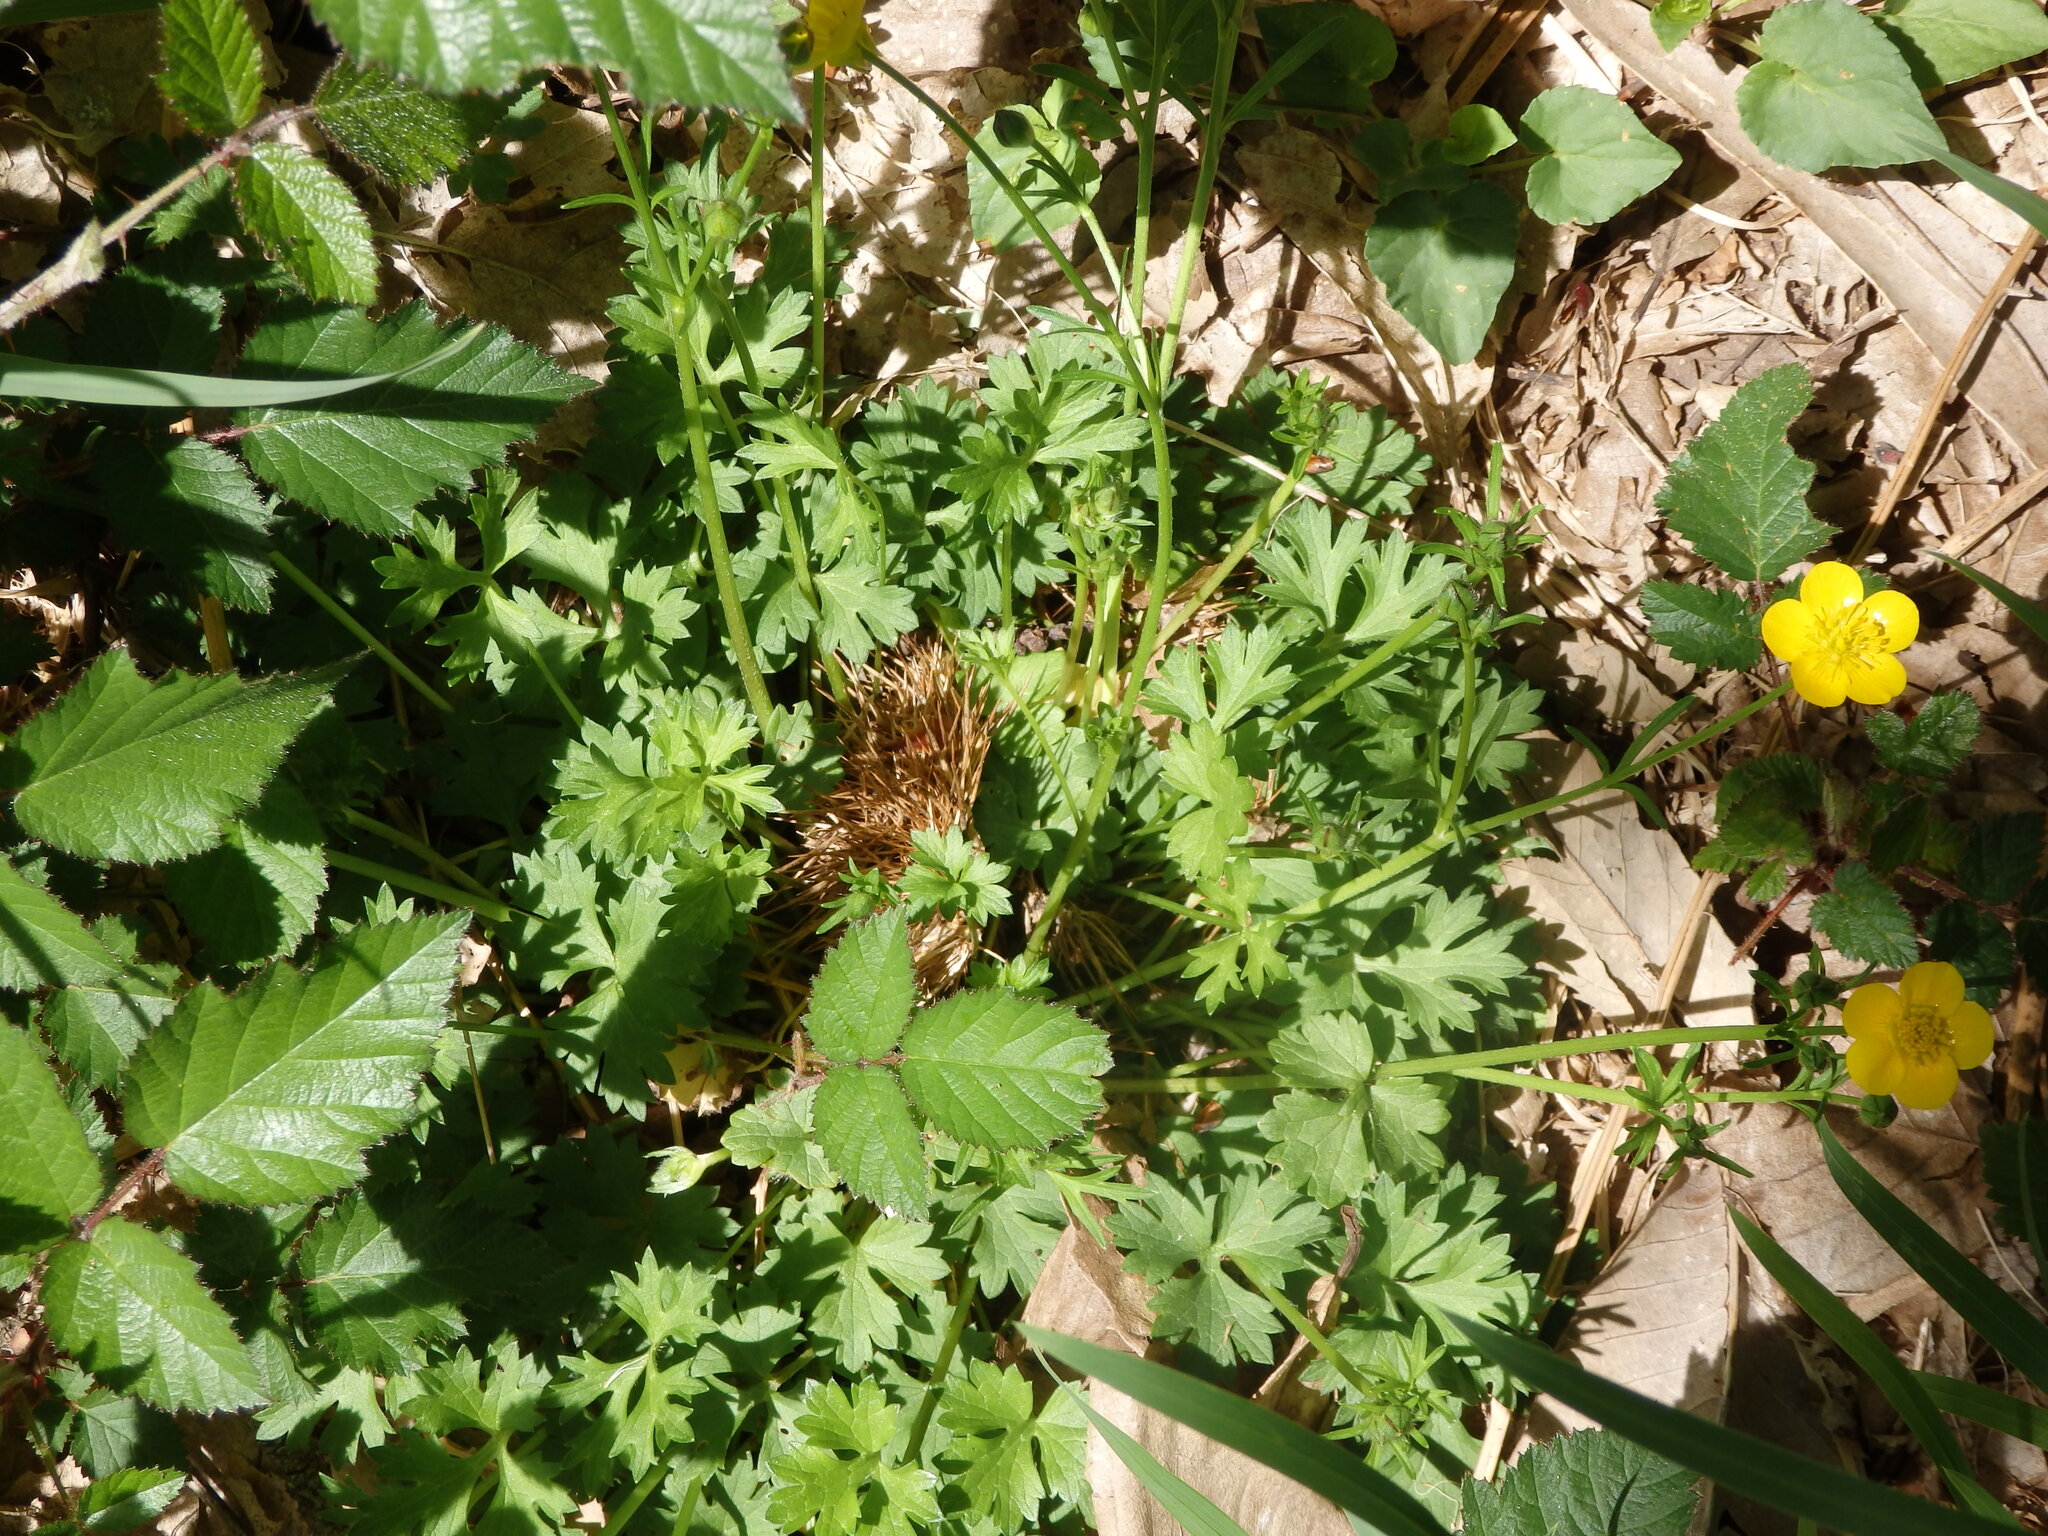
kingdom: Plantae
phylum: Tracheophyta
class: Magnoliopsida
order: Ranunculales
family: Ranunculaceae
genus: Ranunculus
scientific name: Ranunculus bulbosus
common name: Bulbous buttercup
